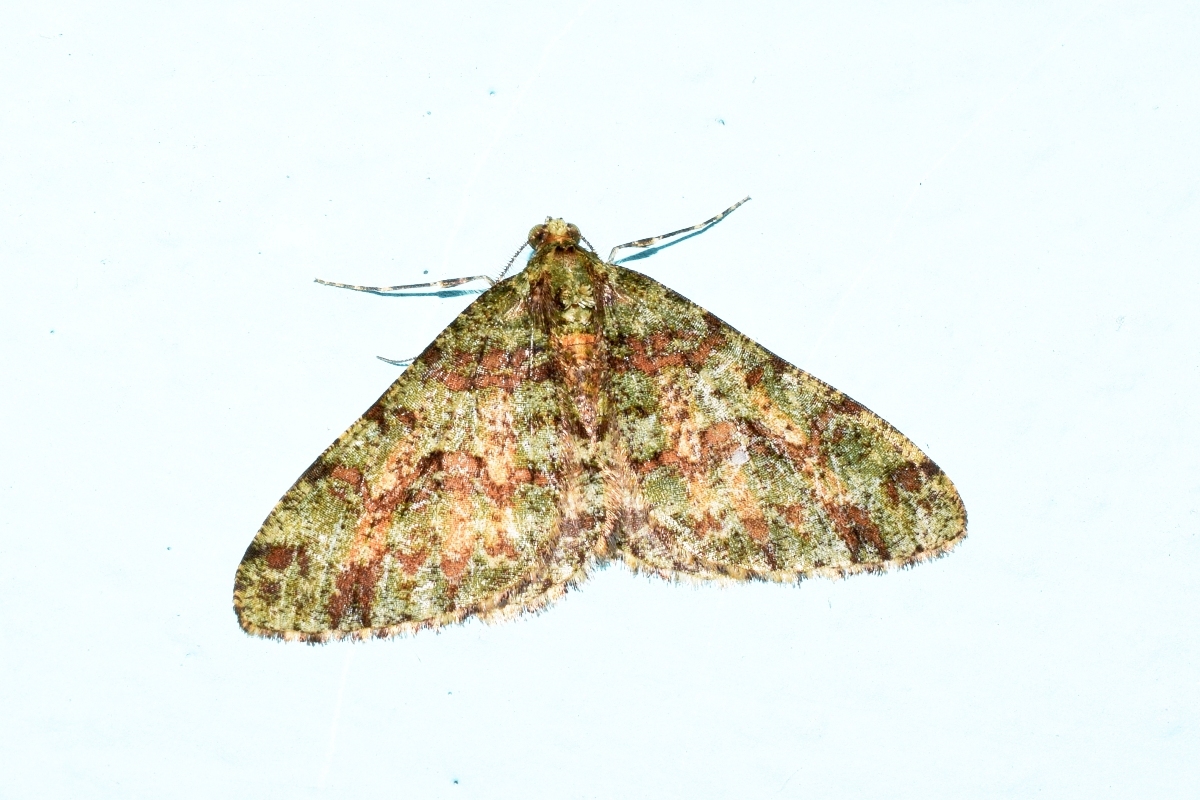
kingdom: Animalia
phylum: Arthropoda
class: Insecta
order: Lepidoptera
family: Geometridae
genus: Myrioblephara
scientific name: Myrioblephara duplexa
